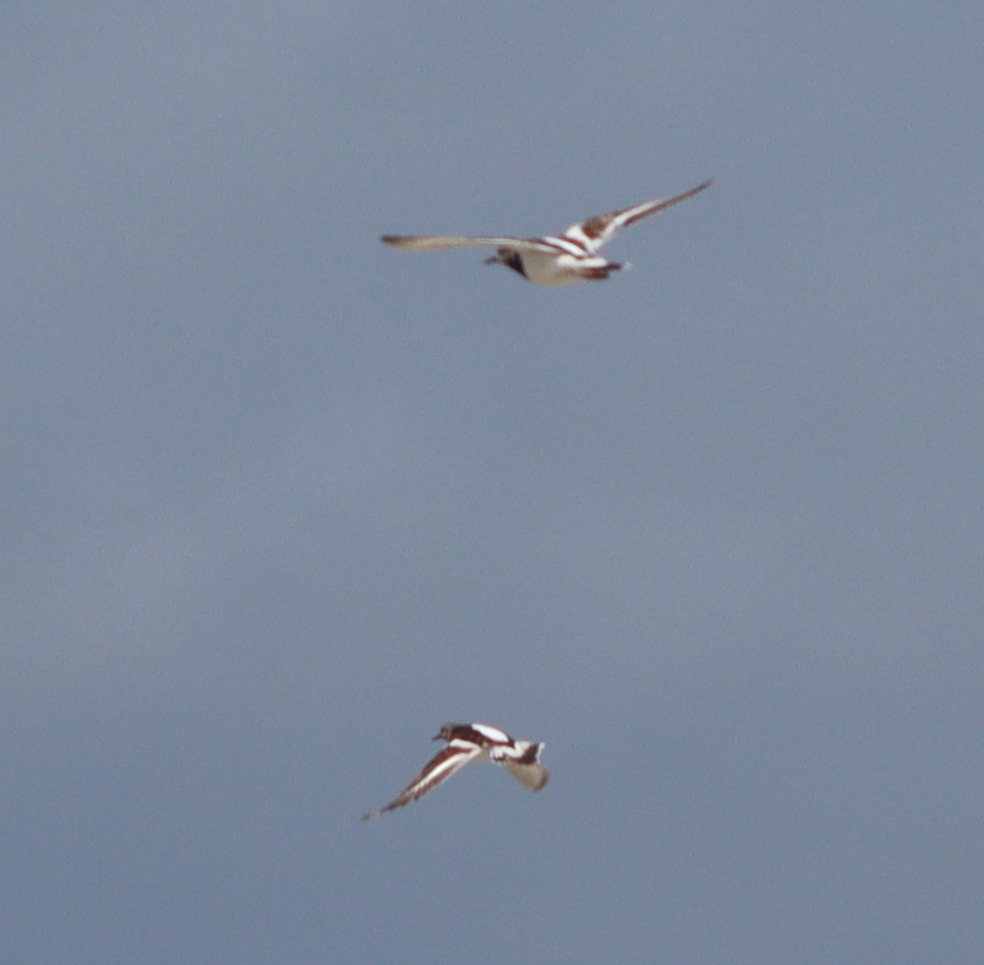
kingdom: Animalia
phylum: Chordata
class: Aves
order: Charadriiformes
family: Scolopacidae
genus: Arenaria
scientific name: Arenaria interpres
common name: Ruddy turnstone
